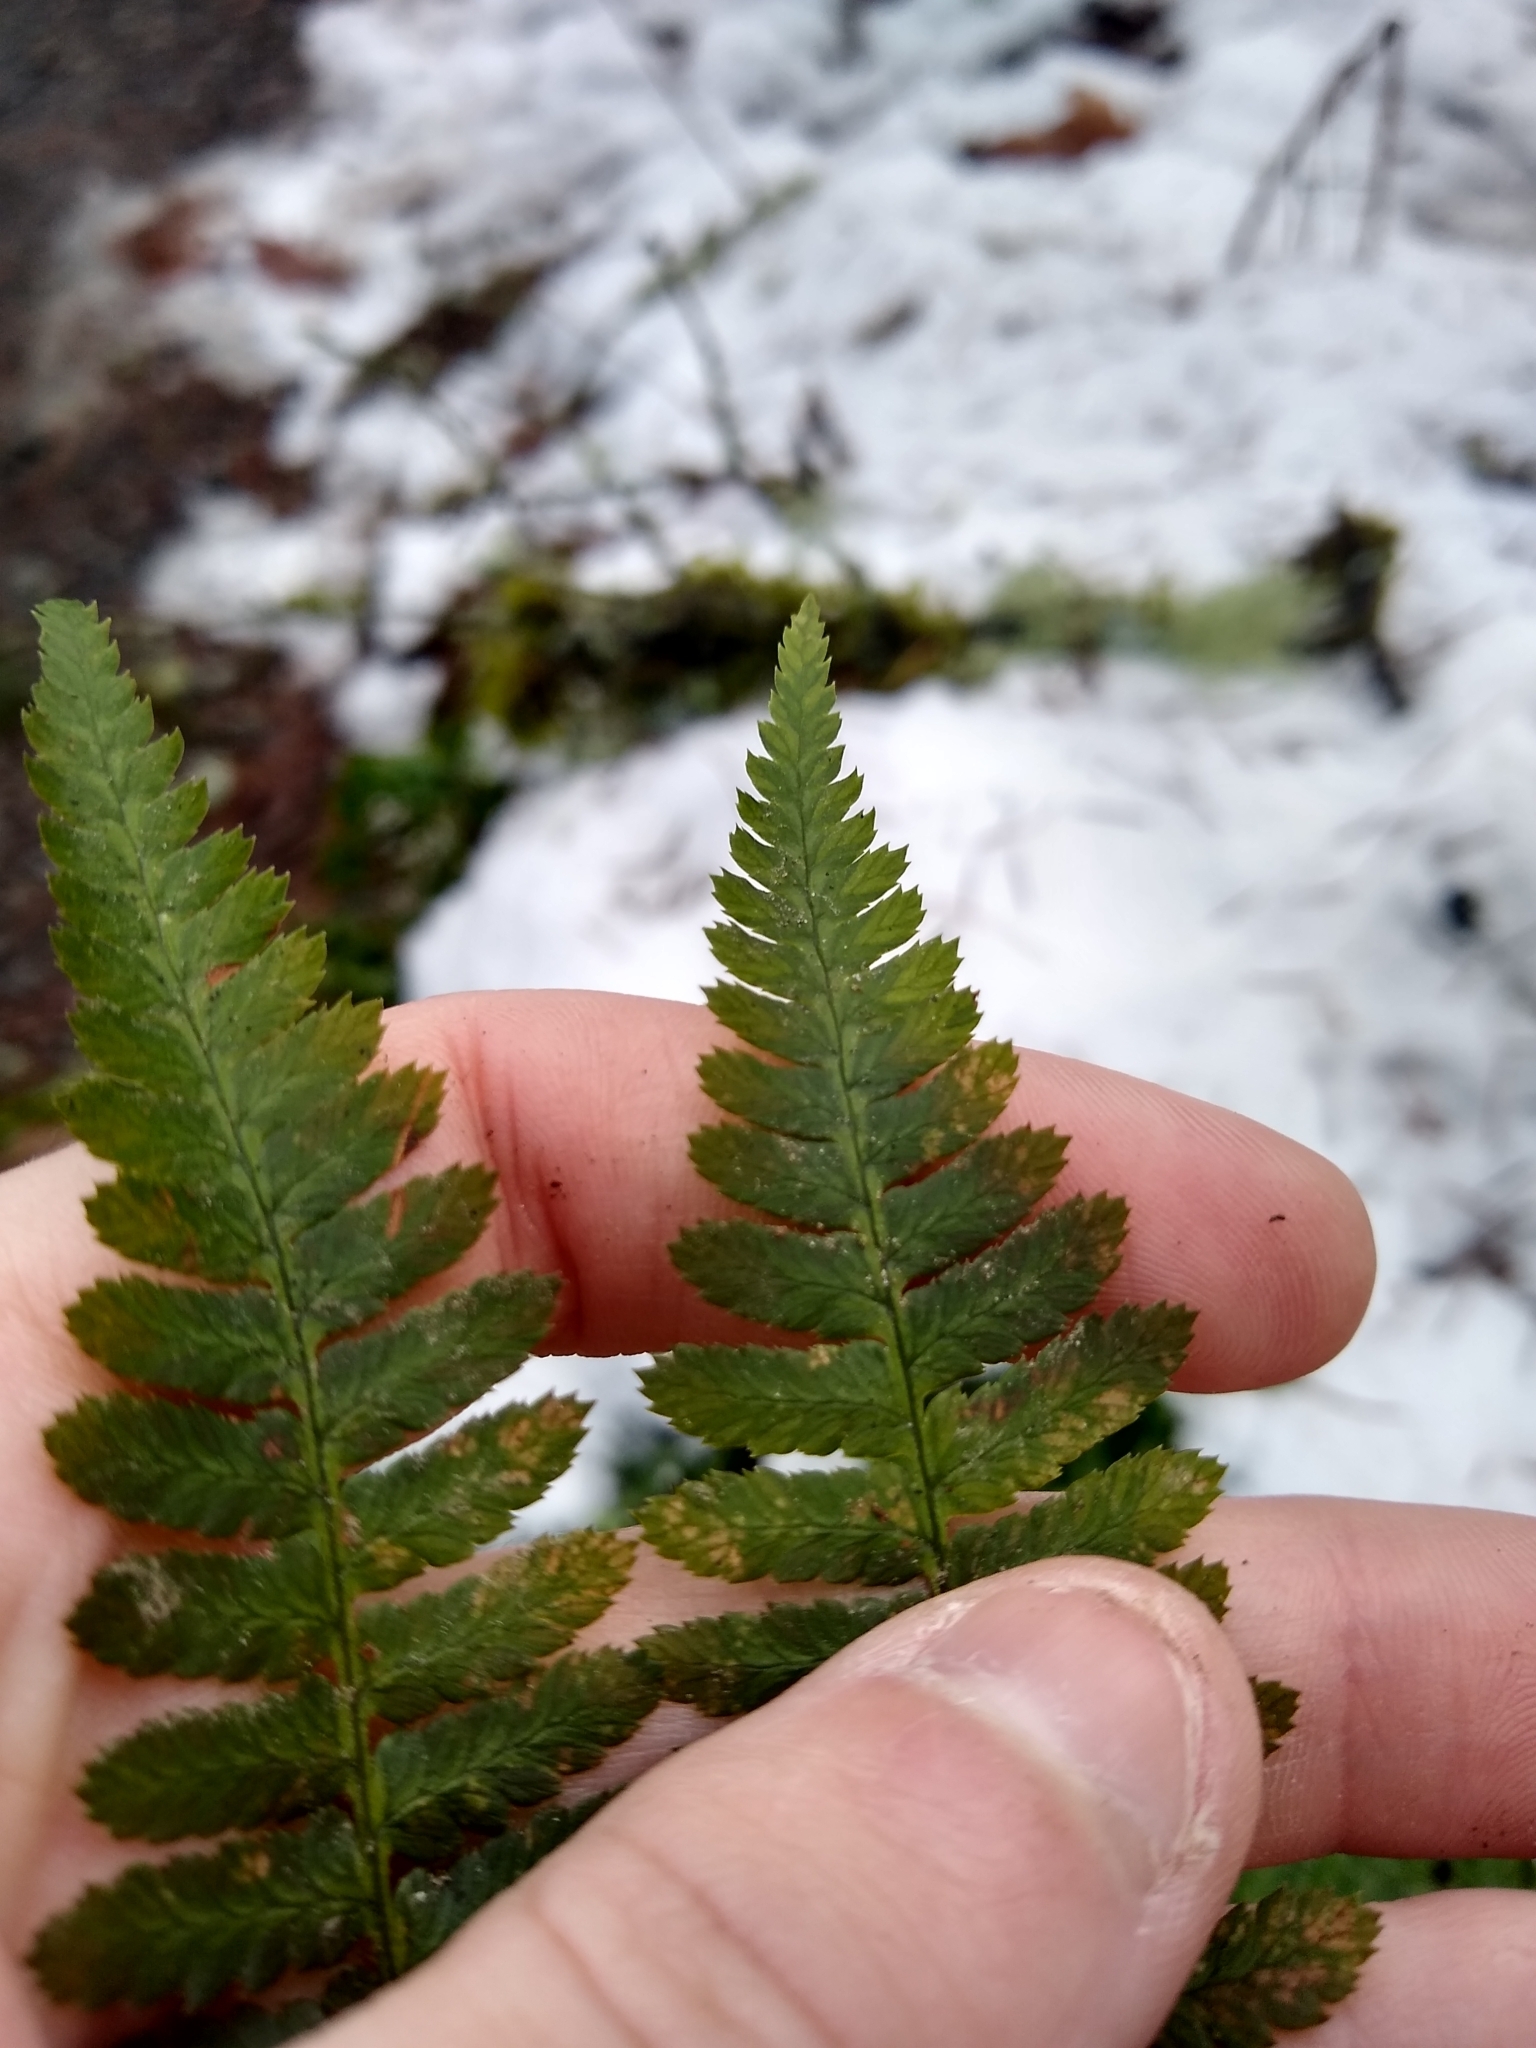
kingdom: Plantae
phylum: Tracheophyta
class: Polypodiopsida
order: Polypodiales
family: Dryopteridaceae
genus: Dryopteris
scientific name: Dryopteris arguta
